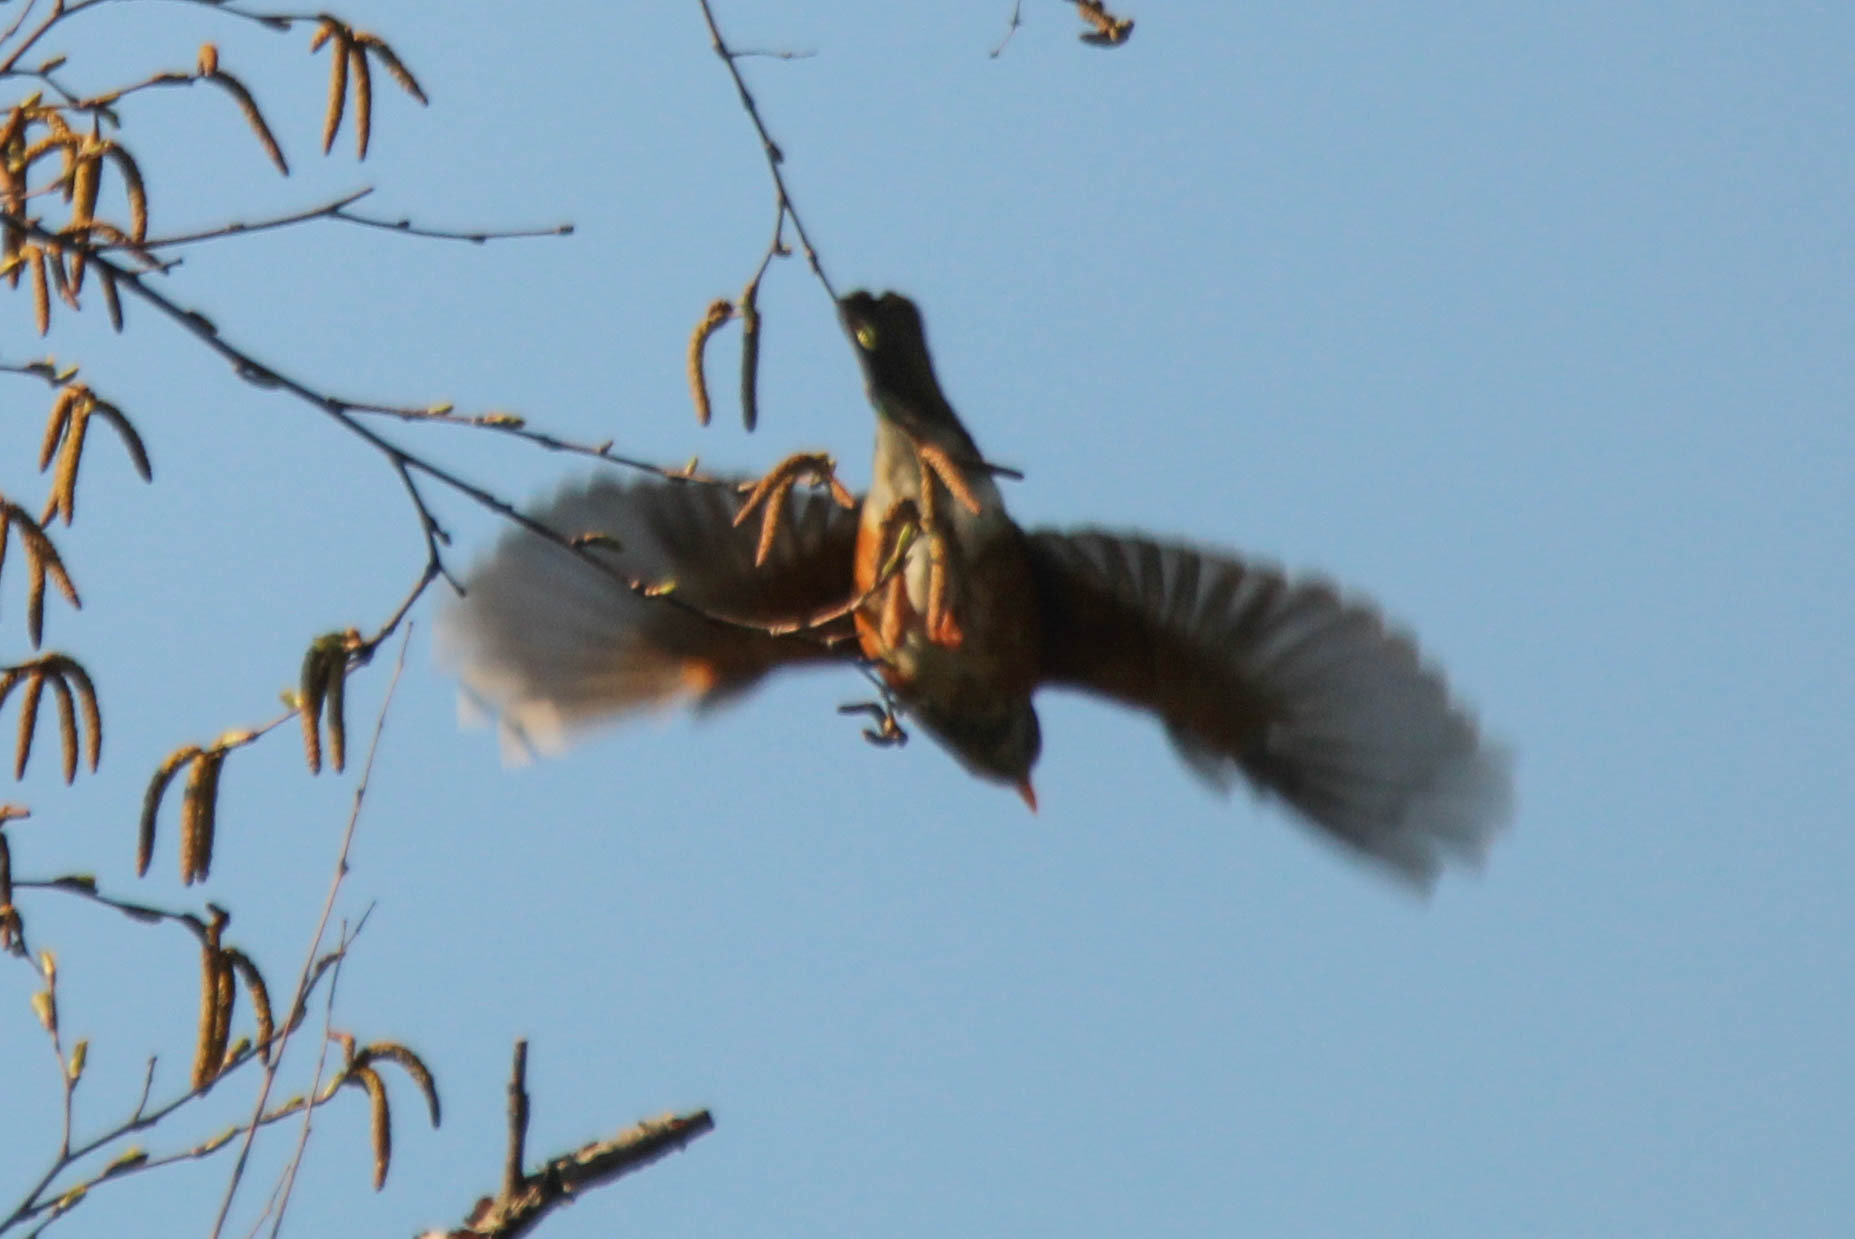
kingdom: Animalia
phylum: Chordata
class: Aves
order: Passeriformes
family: Turdidae
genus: Turdus
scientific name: Turdus hortulorum
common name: Grey-backed thrush
